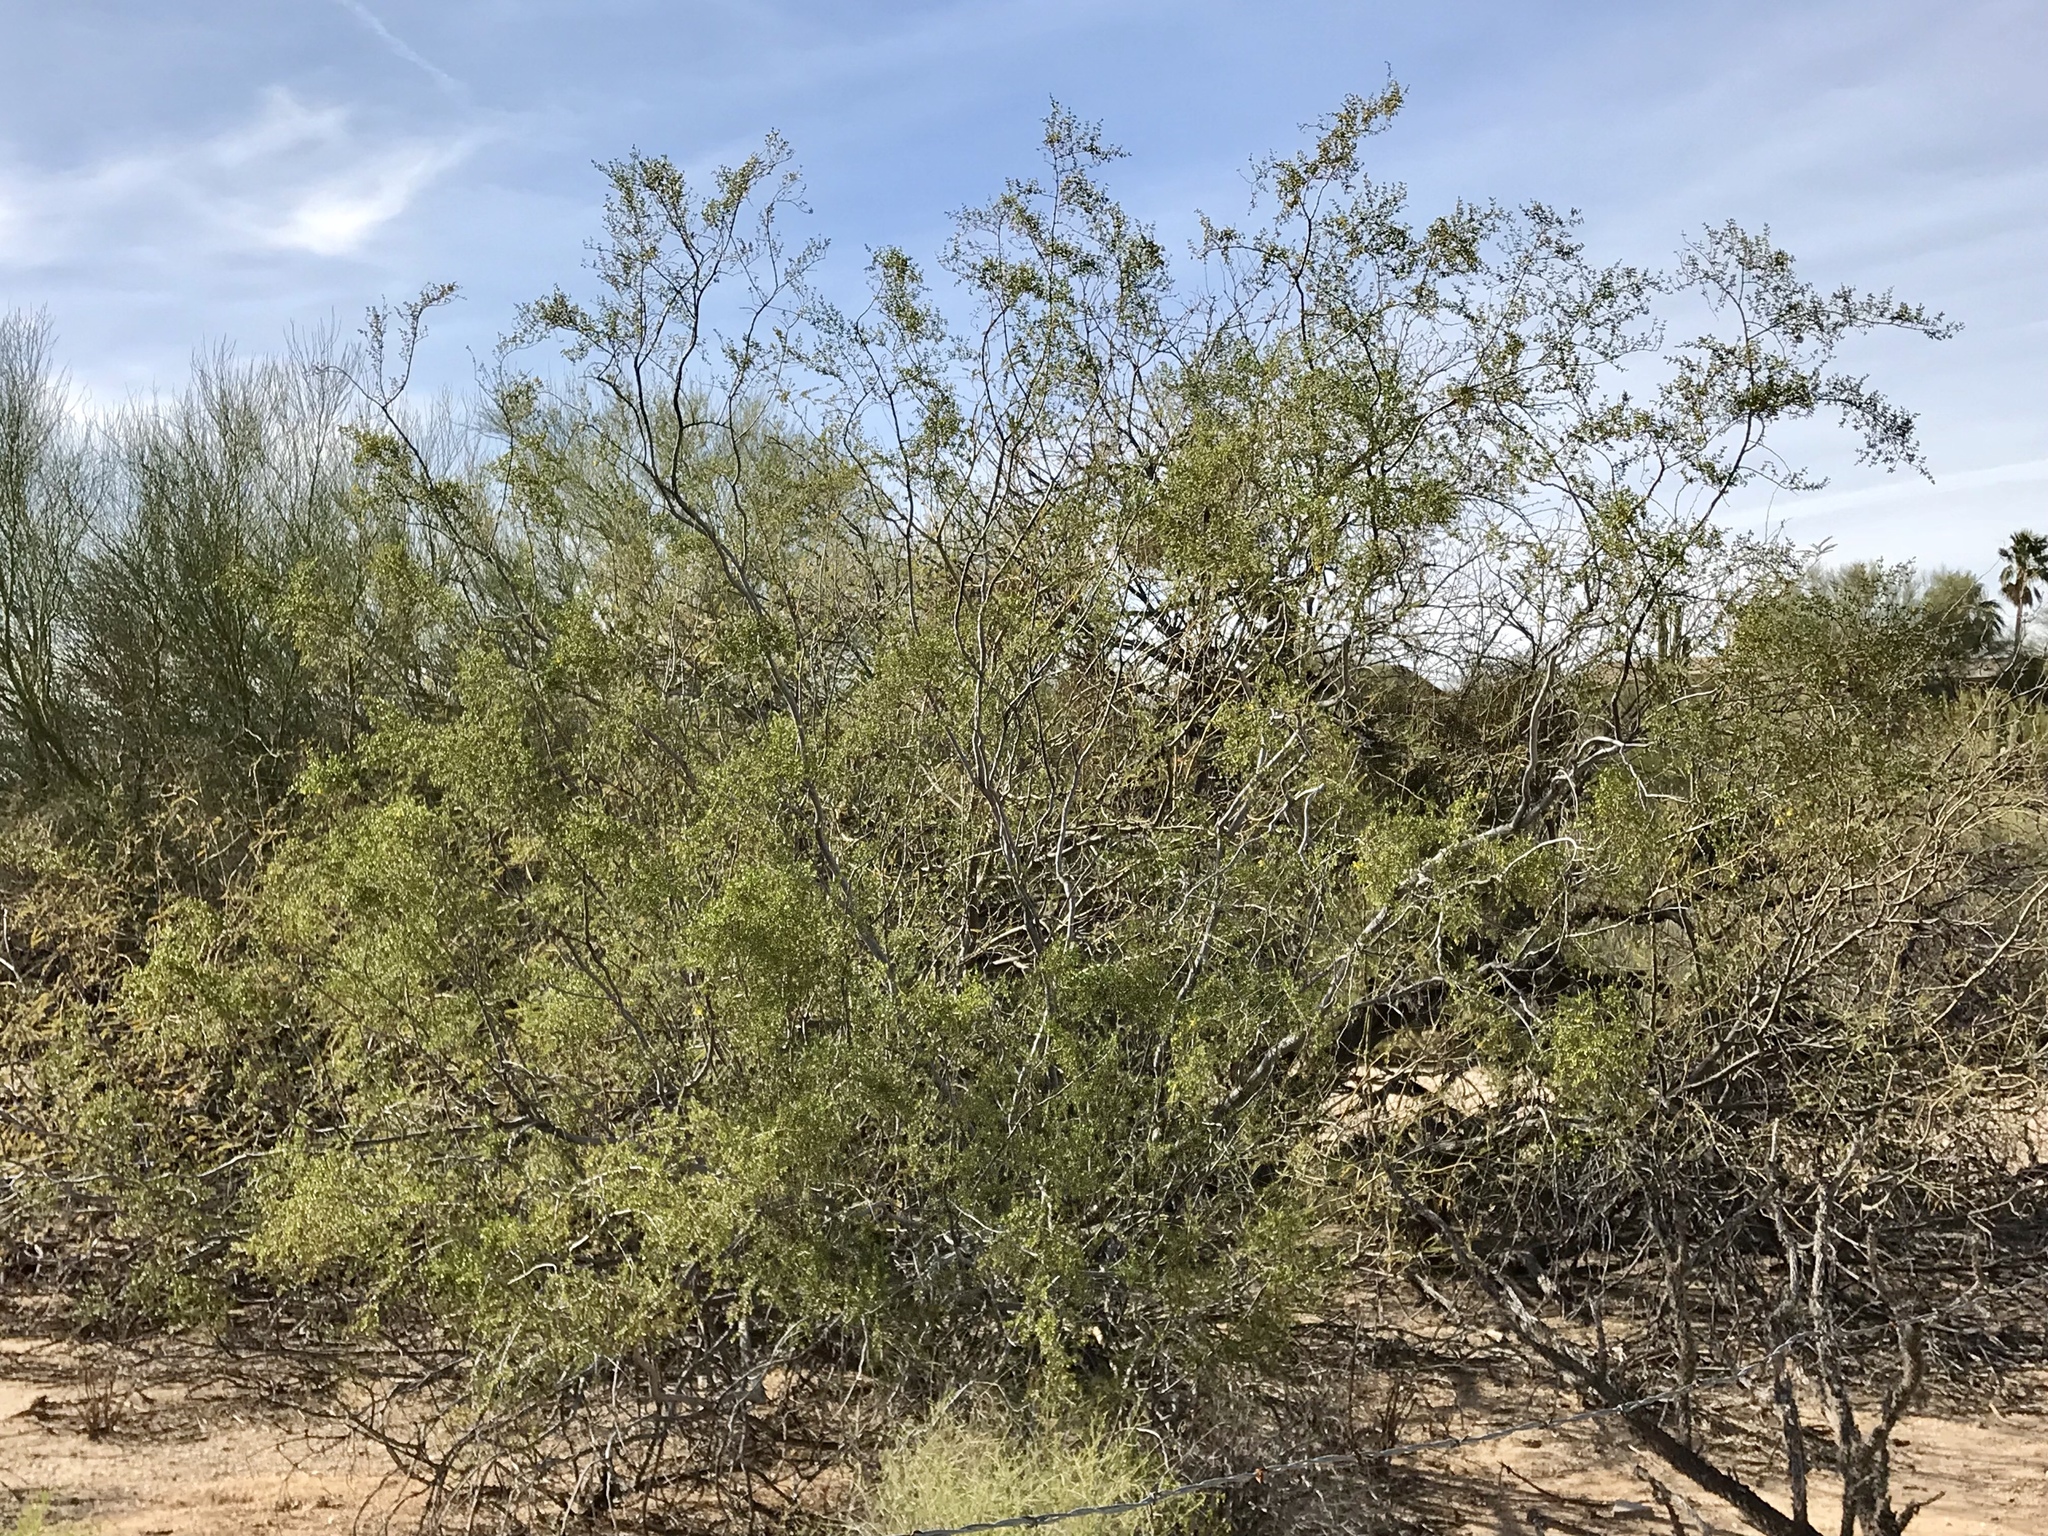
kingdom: Plantae
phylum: Tracheophyta
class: Magnoliopsida
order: Zygophyllales
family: Zygophyllaceae
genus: Larrea
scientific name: Larrea tridentata
